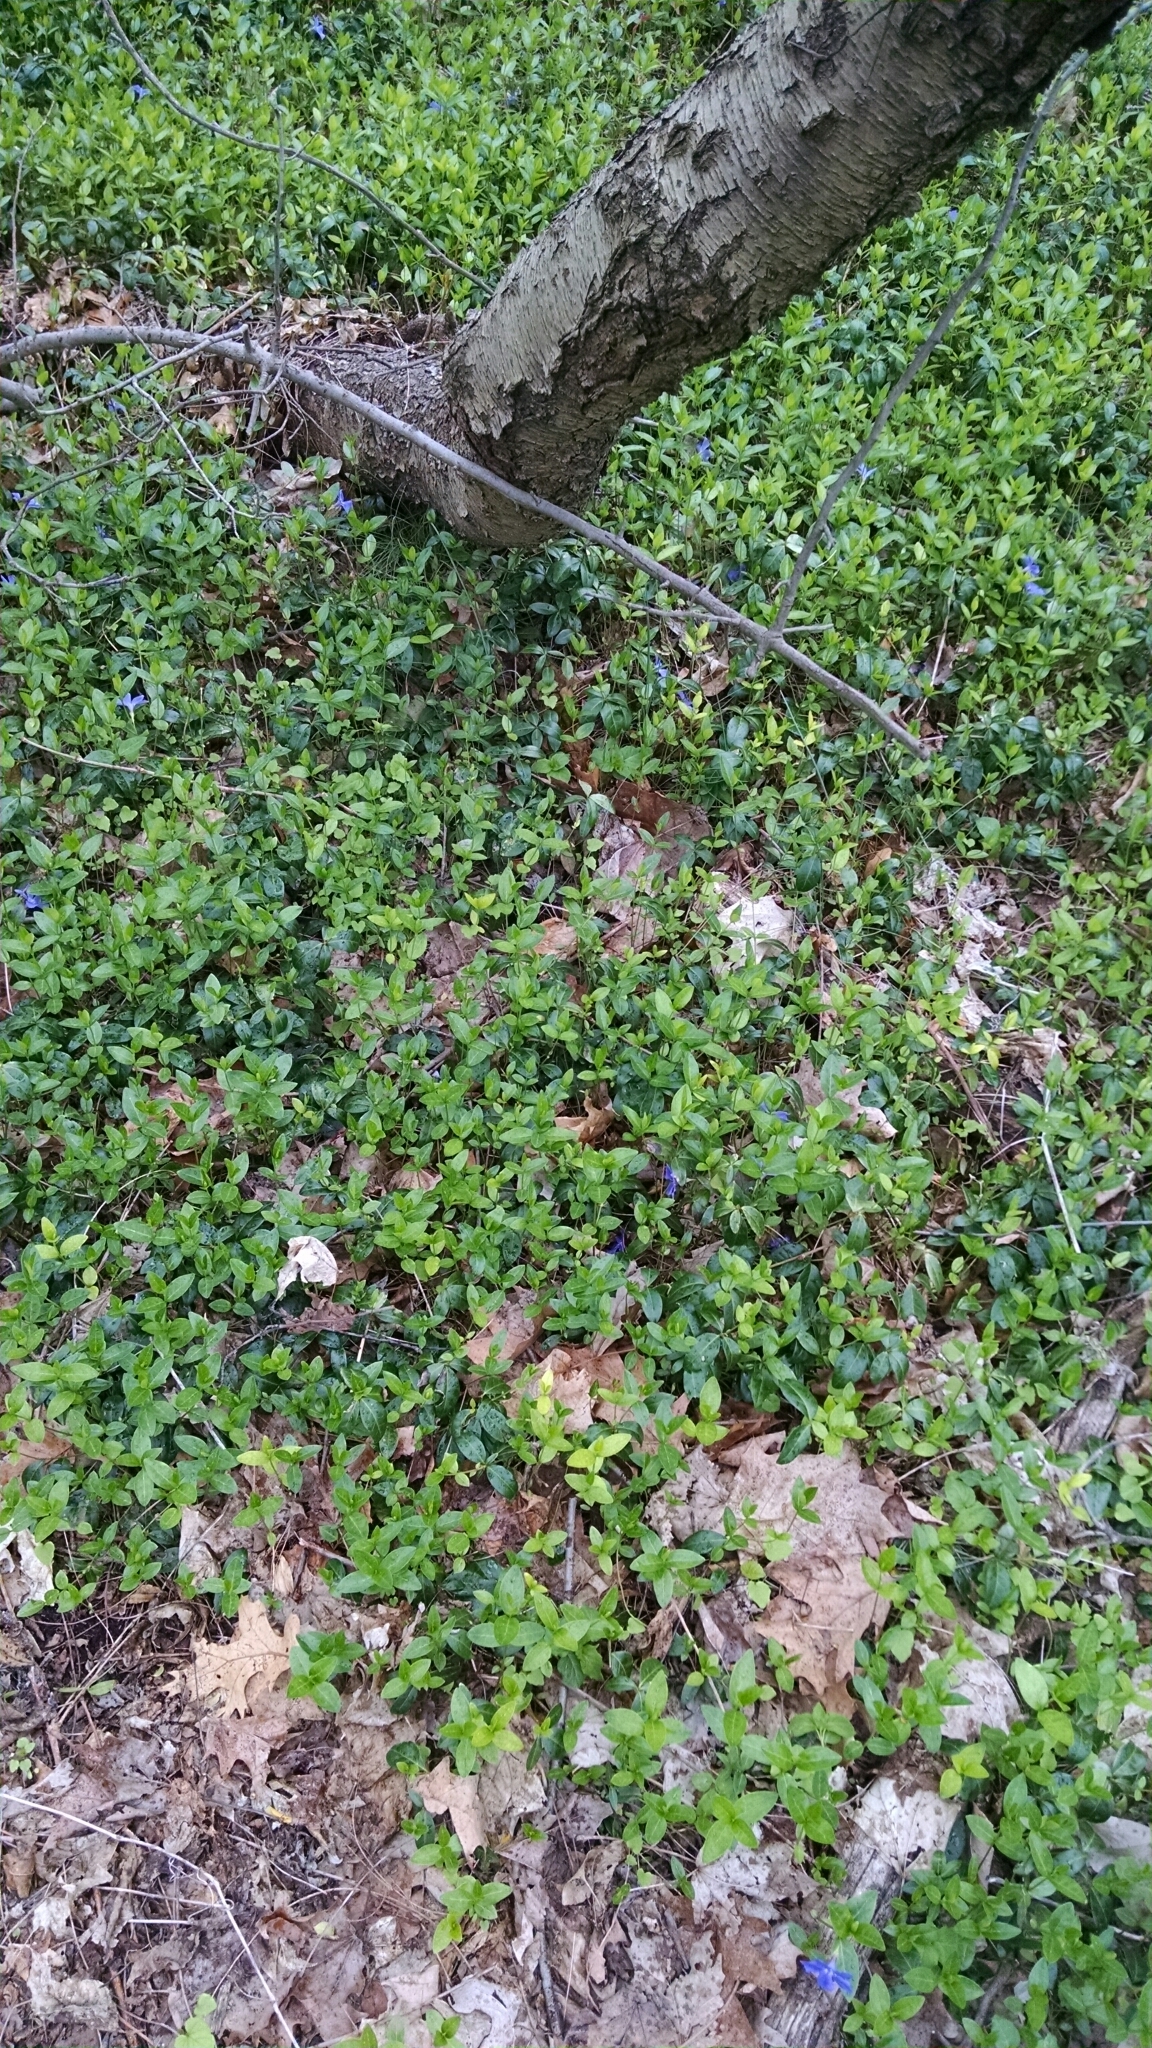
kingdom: Plantae
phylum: Tracheophyta
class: Magnoliopsida
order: Gentianales
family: Apocynaceae
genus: Vinca
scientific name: Vinca minor
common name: Lesser periwinkle
